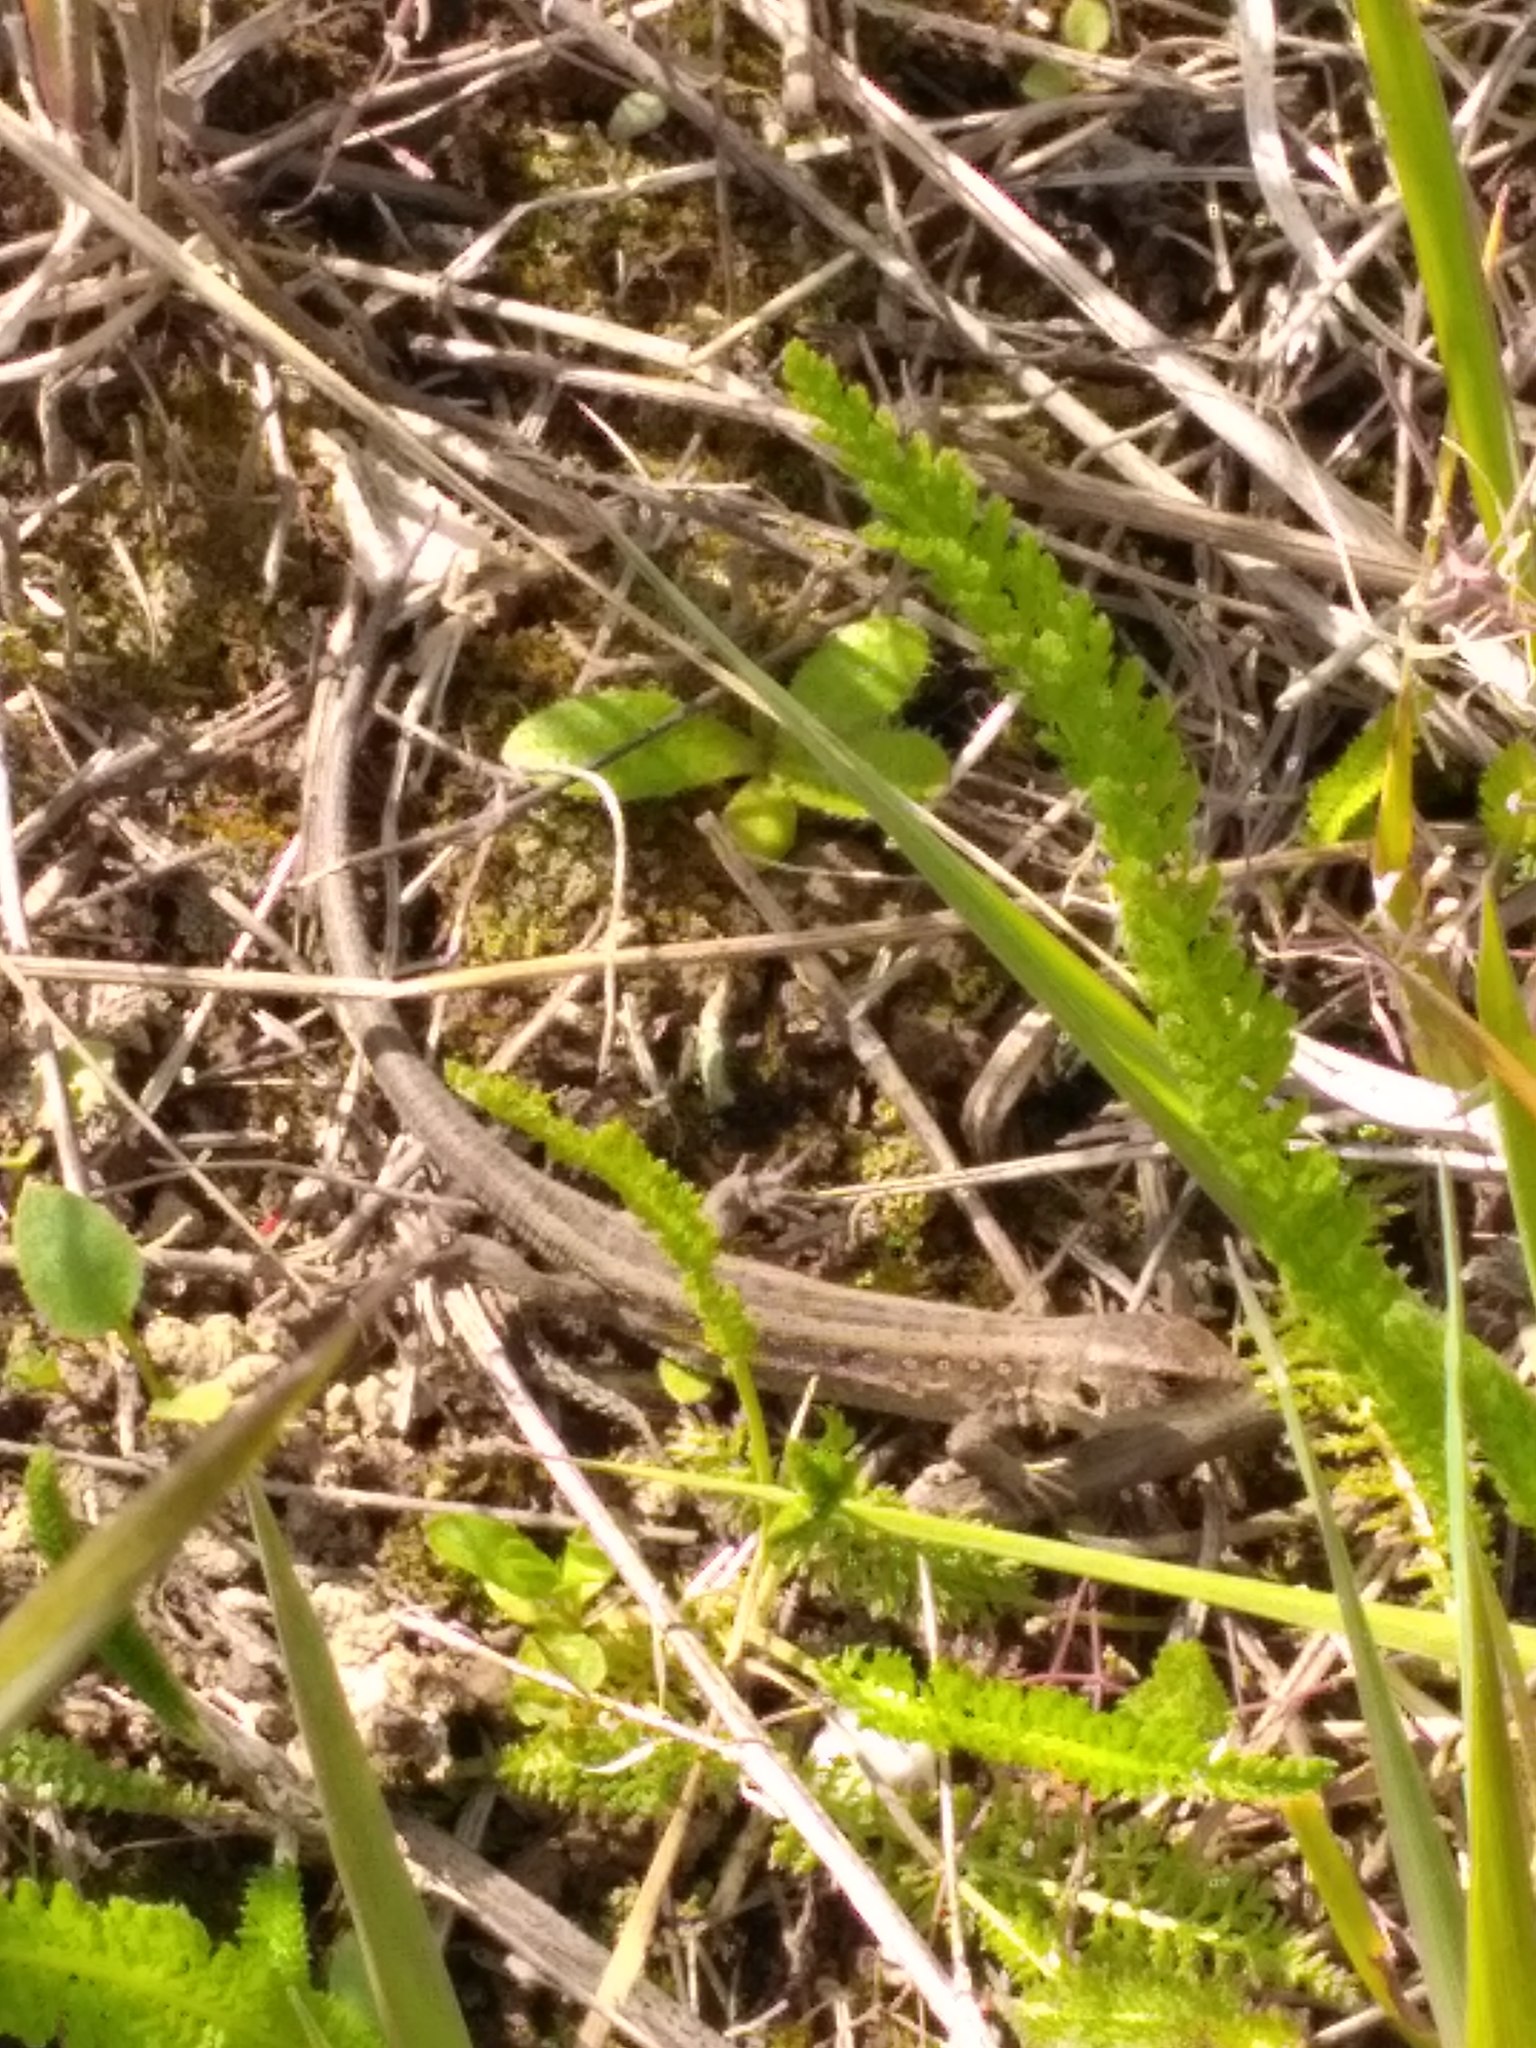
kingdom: Animalia
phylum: Chordata
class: Squamata
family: Lacertidae
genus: Lacerta
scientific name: Lacerta agilis
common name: Sand lizard
